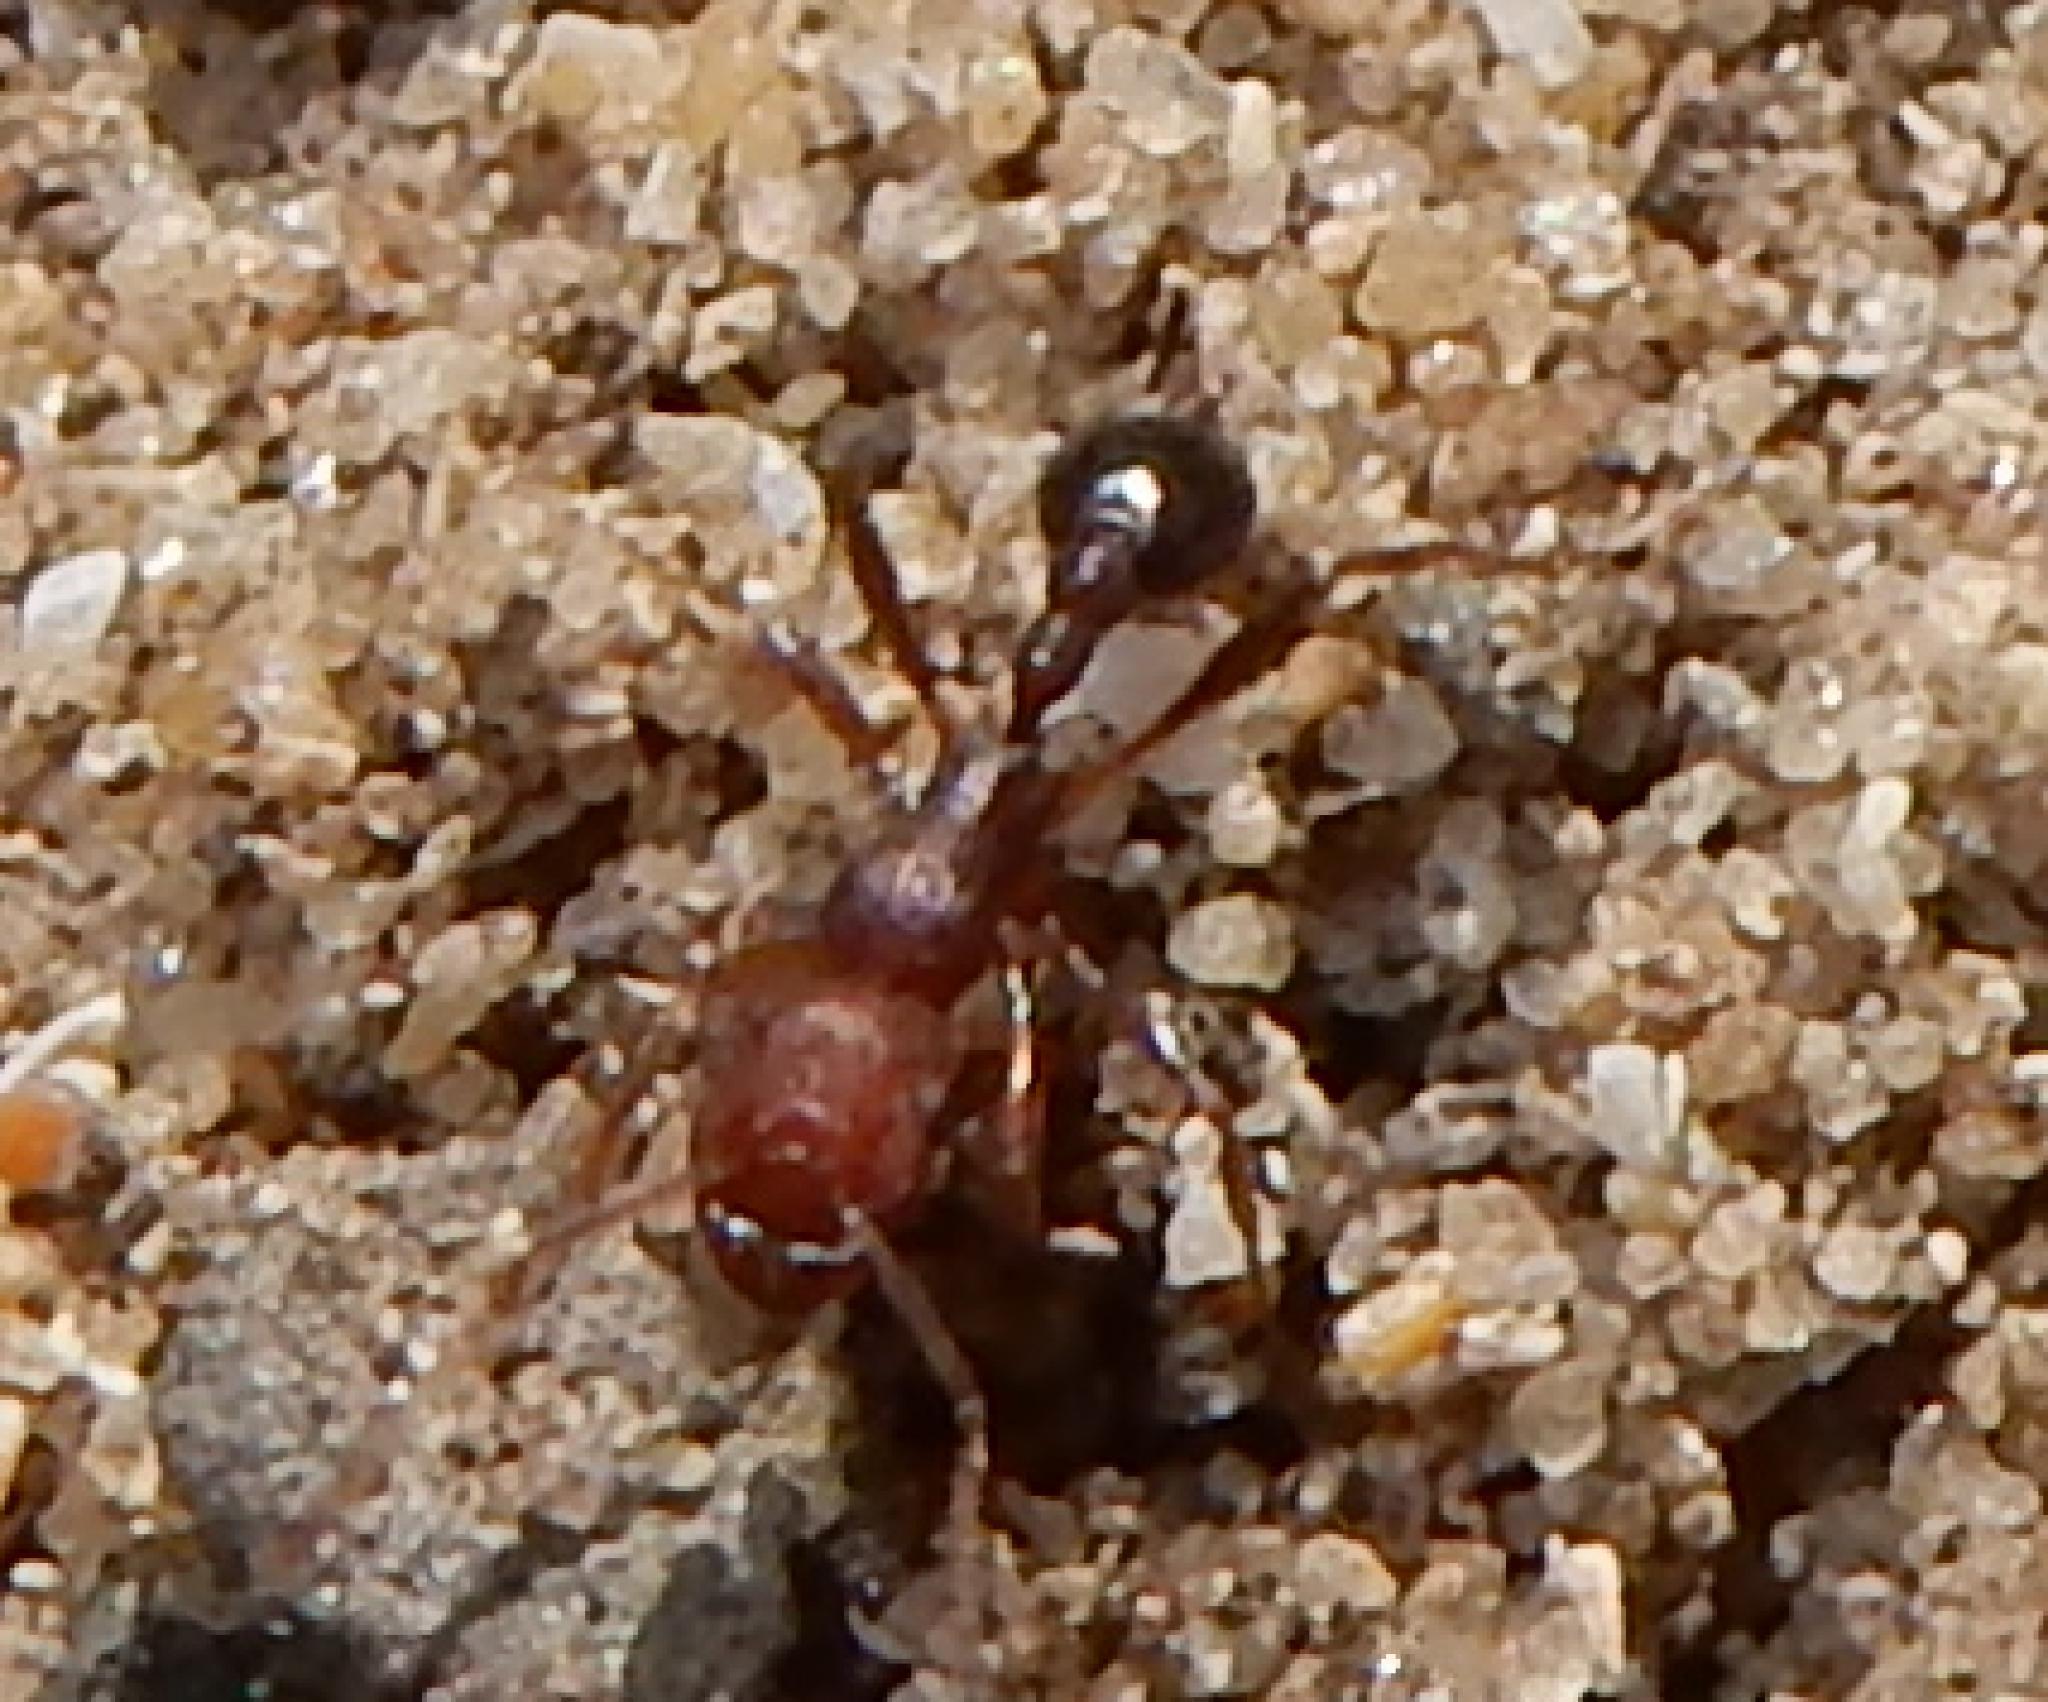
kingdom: Animalia
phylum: Arthropoda
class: Insecta
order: Hymenoptera
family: Formicidae
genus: Tetramorium
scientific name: Tetramorium sericeiventre
